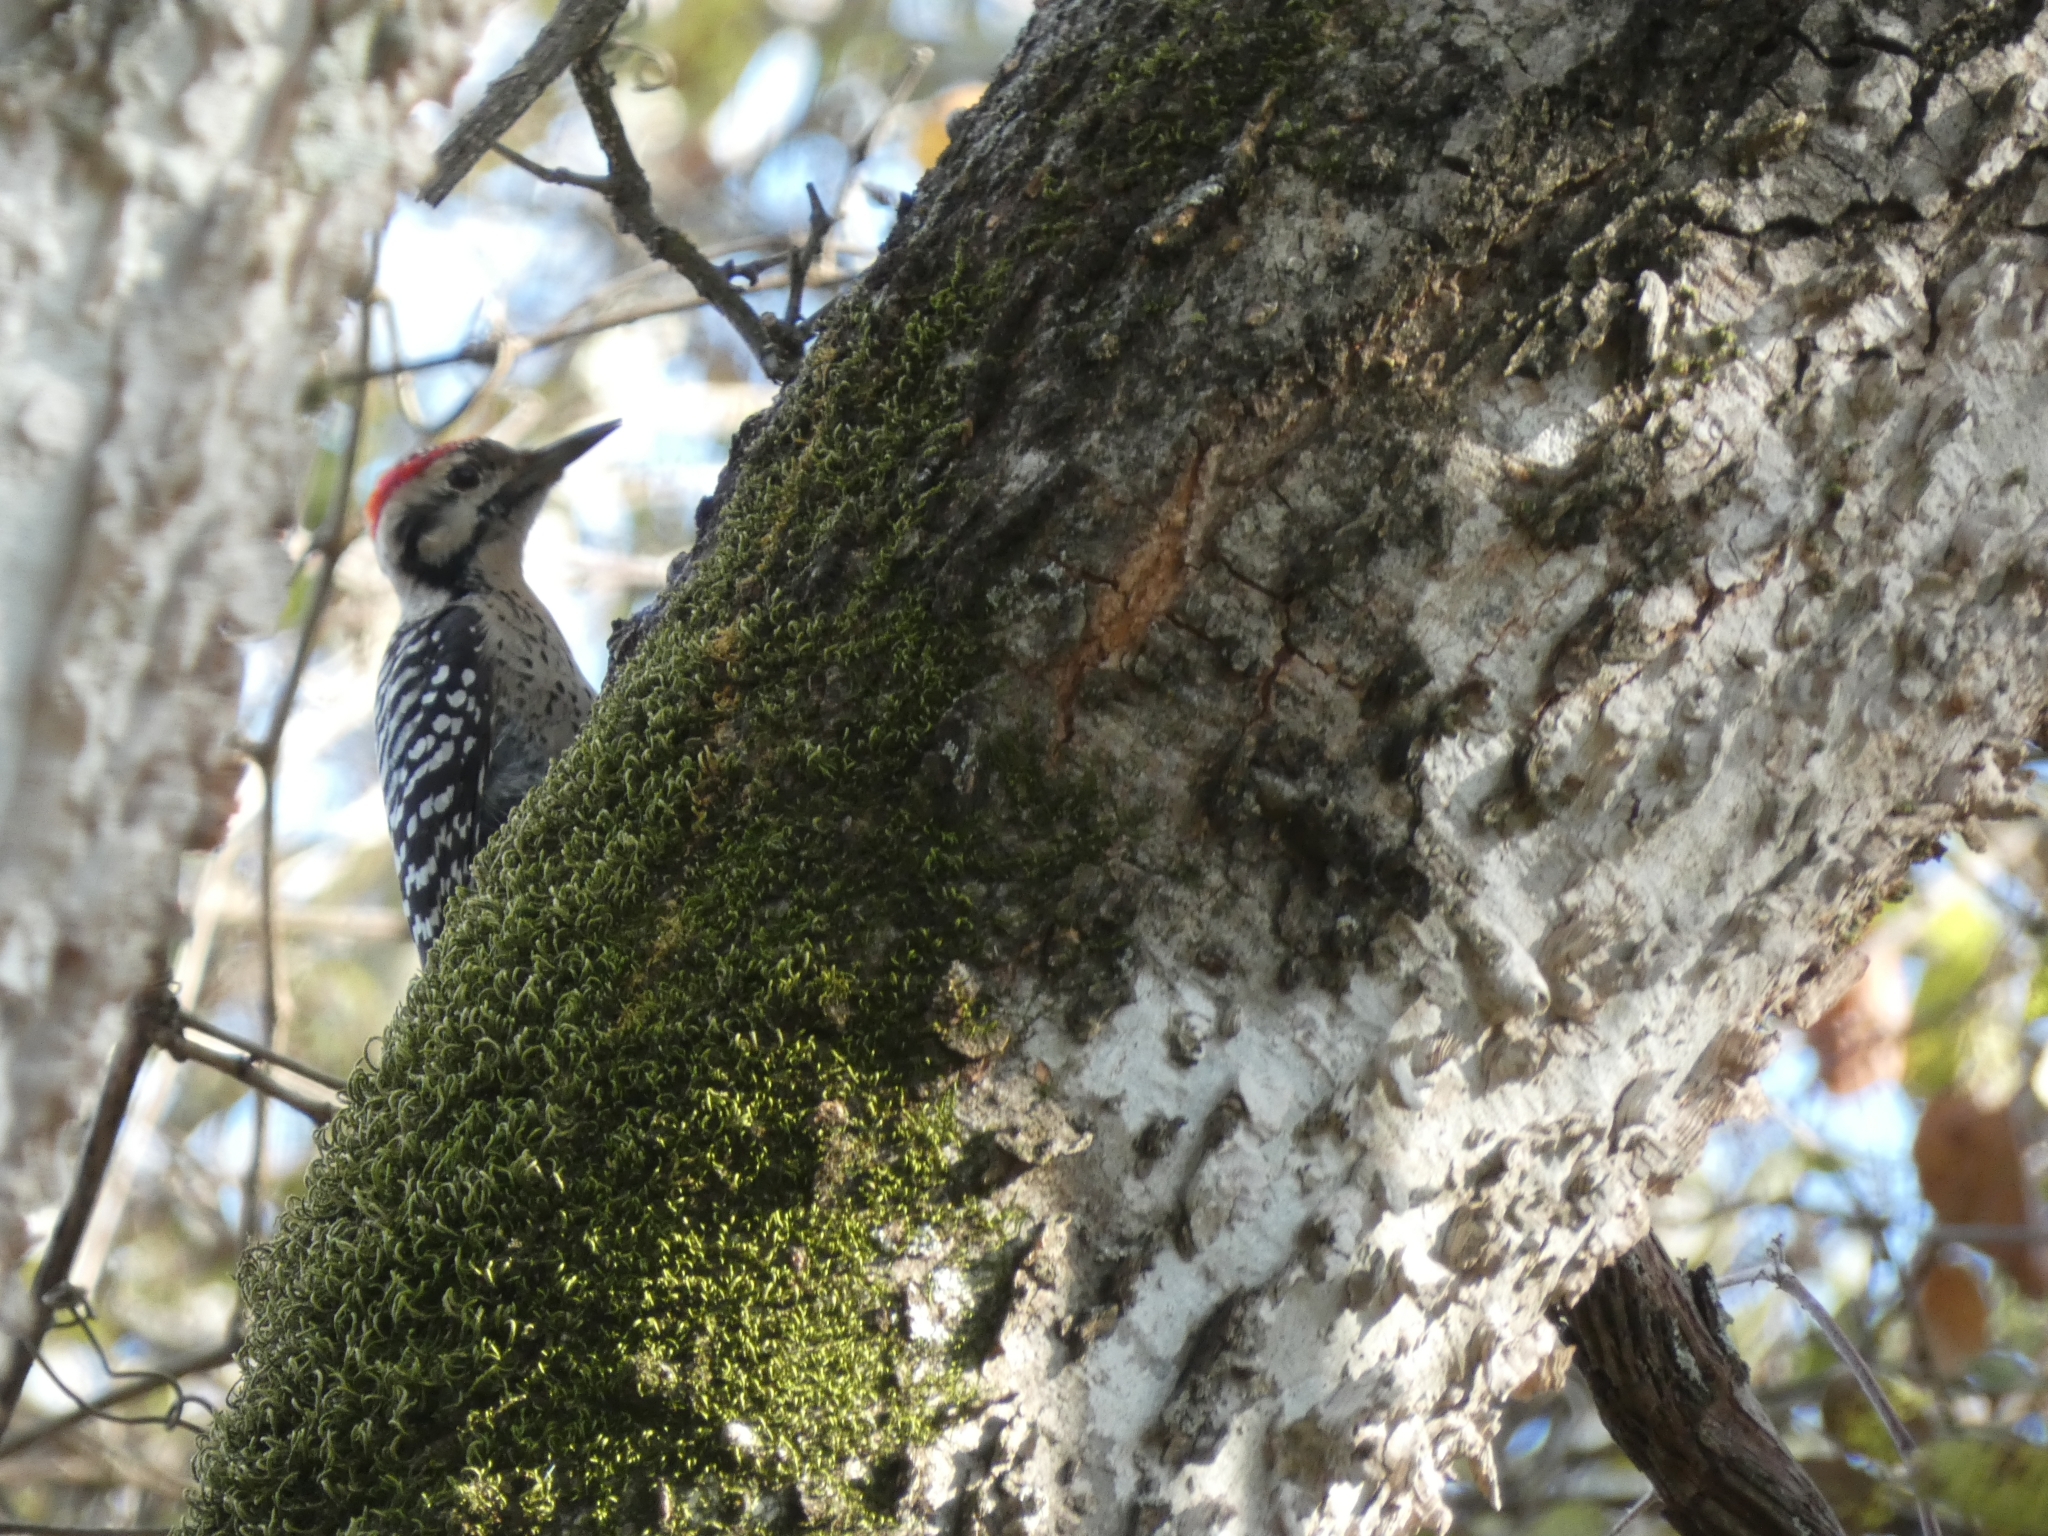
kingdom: Animalia
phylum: Chordata
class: Aves
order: Piciformes
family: Picidae
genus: Dryobates
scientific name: Dryobates scalaris
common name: Ladder-backed woodpecker
